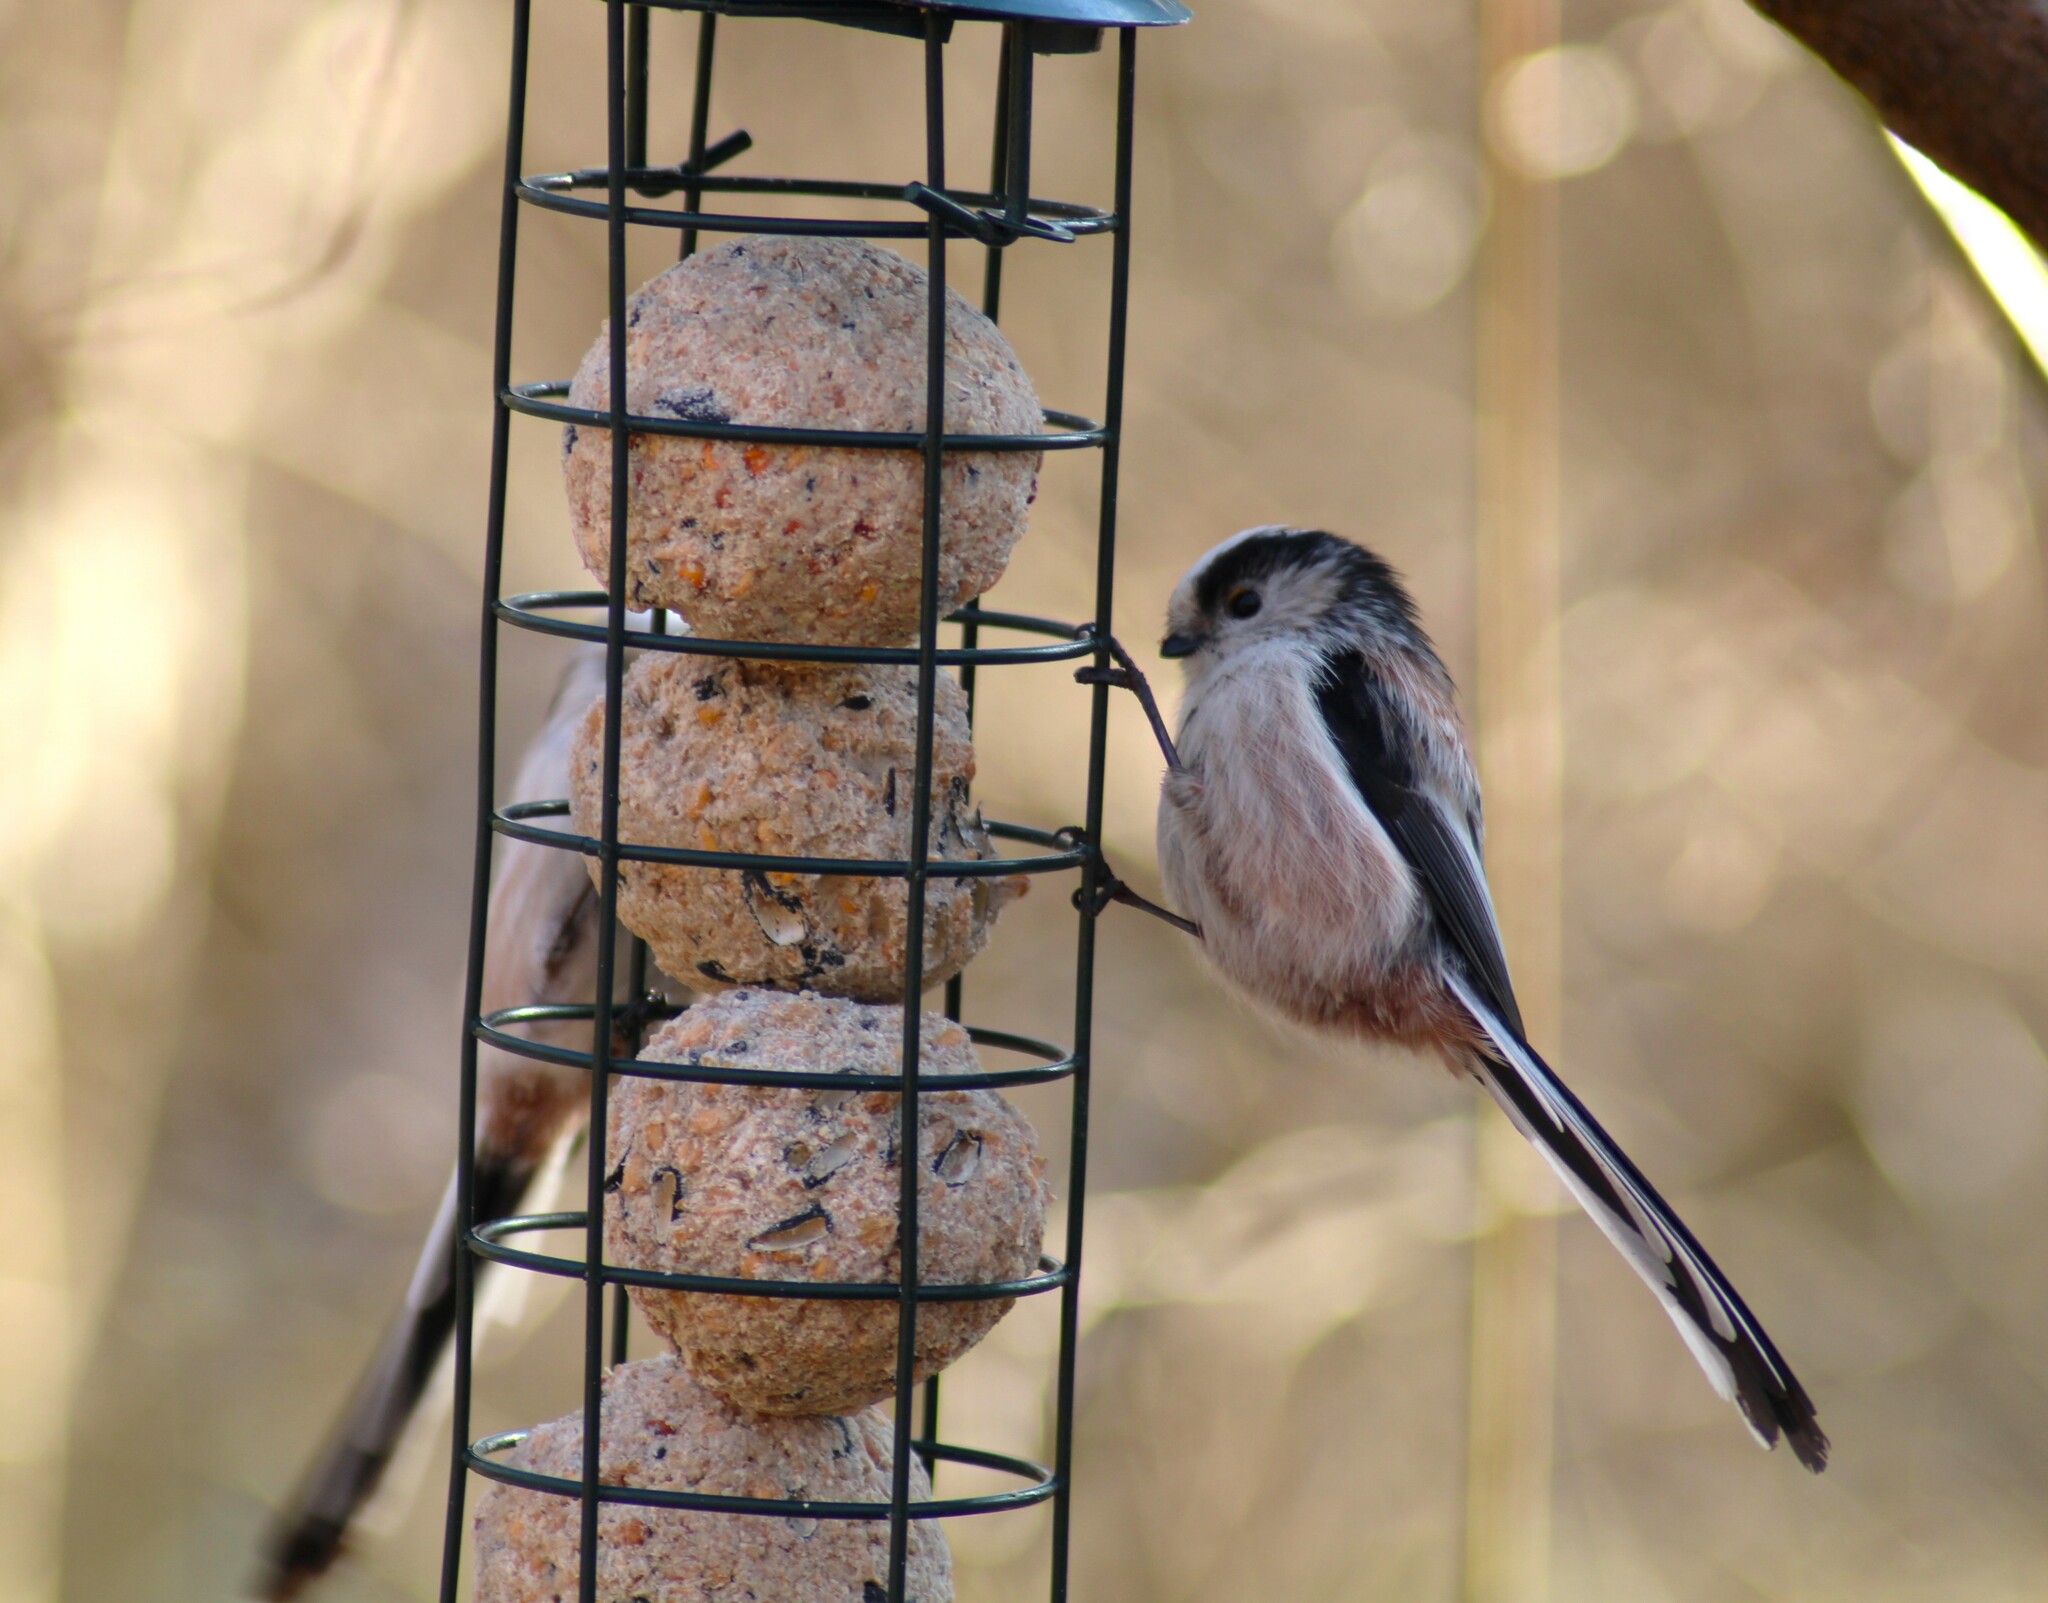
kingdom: Animalia
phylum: Chordata
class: Aves
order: Passeriformes
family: Aegithalidae
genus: Aegithalos
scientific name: Aegithalos caudatus
